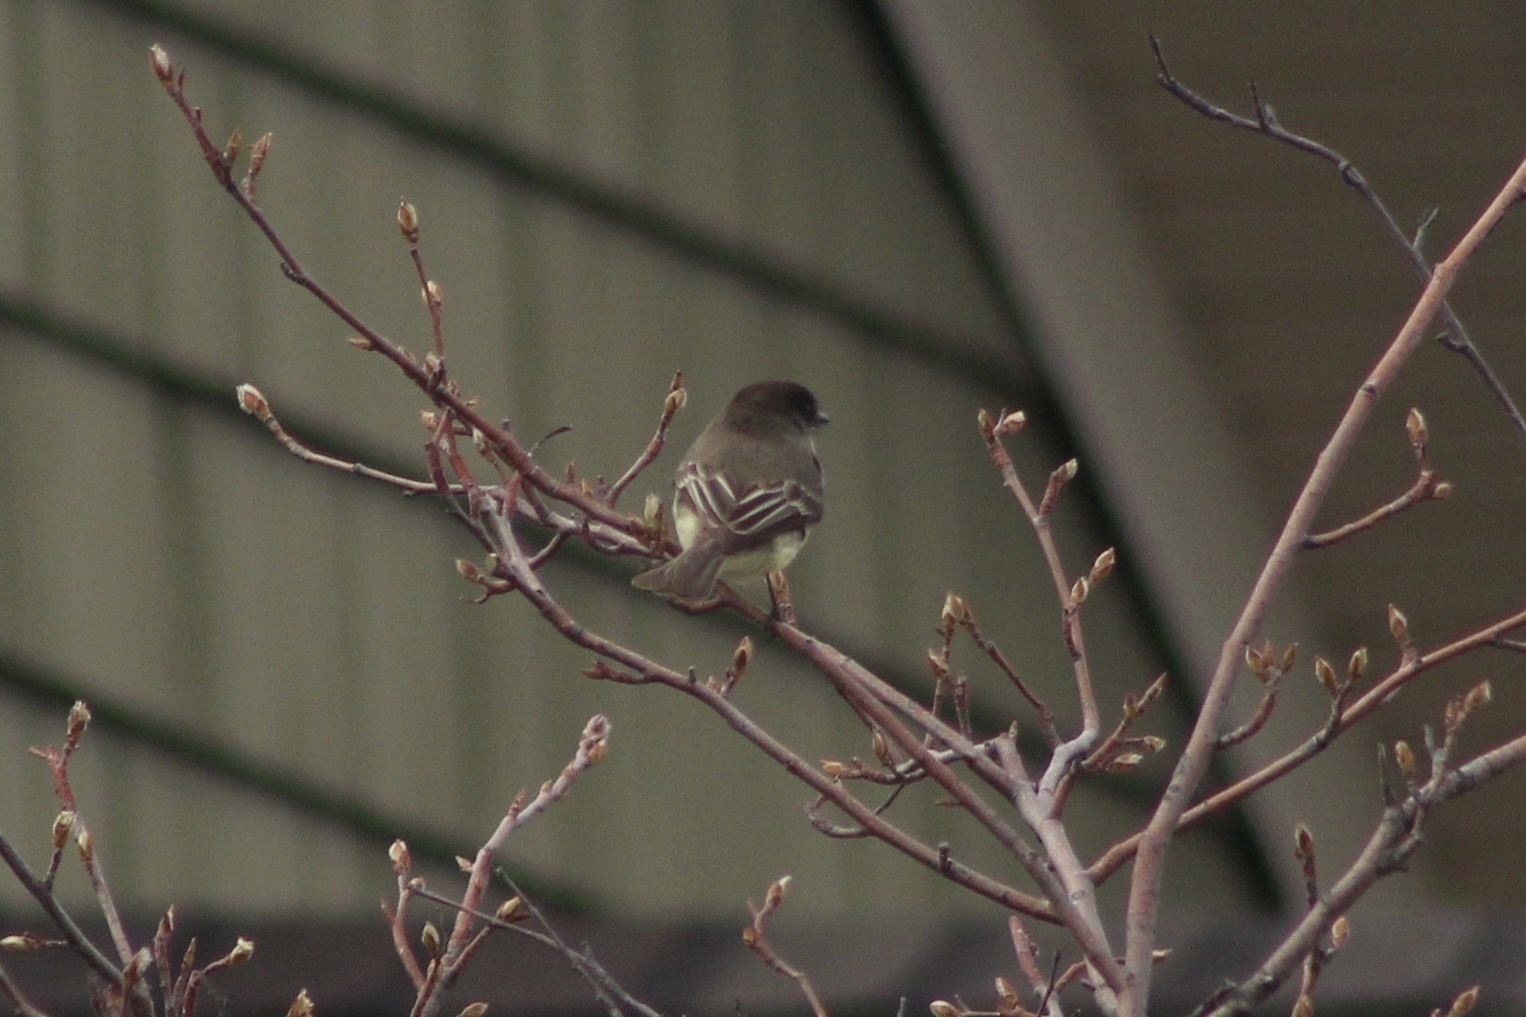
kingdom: Animalia
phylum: Chordata
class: Aves
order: Passeriformes
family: Tyrannidae
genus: Sayornis
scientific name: Sayornis phoebe
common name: Eastern phoebe
